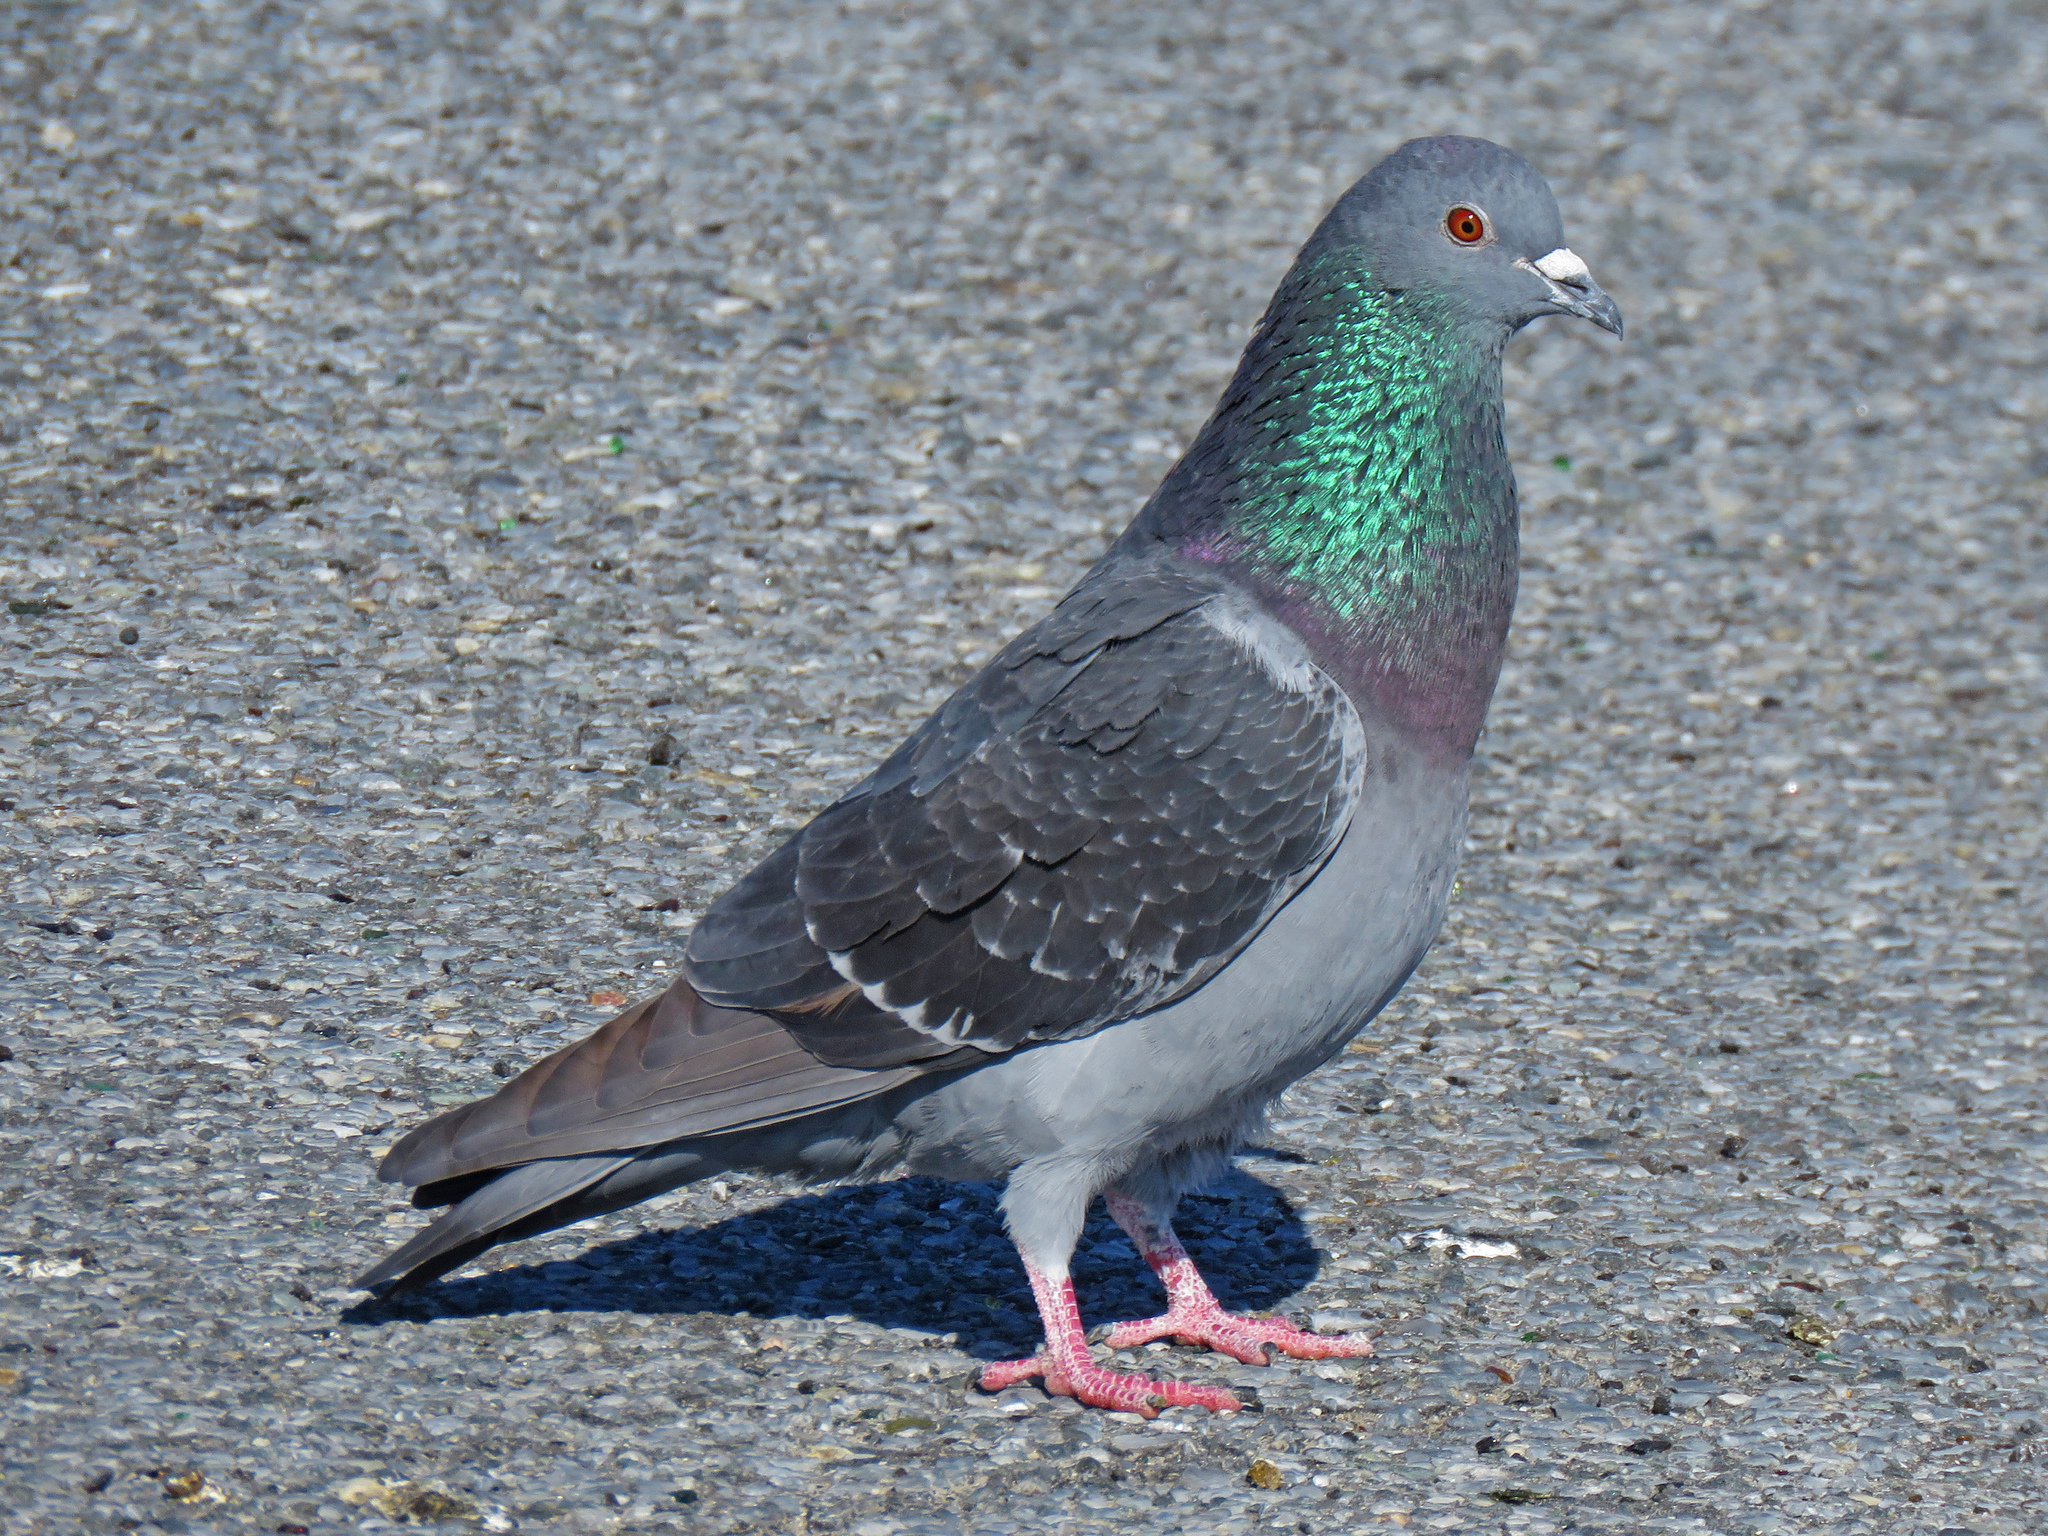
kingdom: Animalia
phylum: Chordata
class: Aves
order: Columbiformes
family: Columbidae
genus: Columba
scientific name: Columba livia
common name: Rock pigeon
